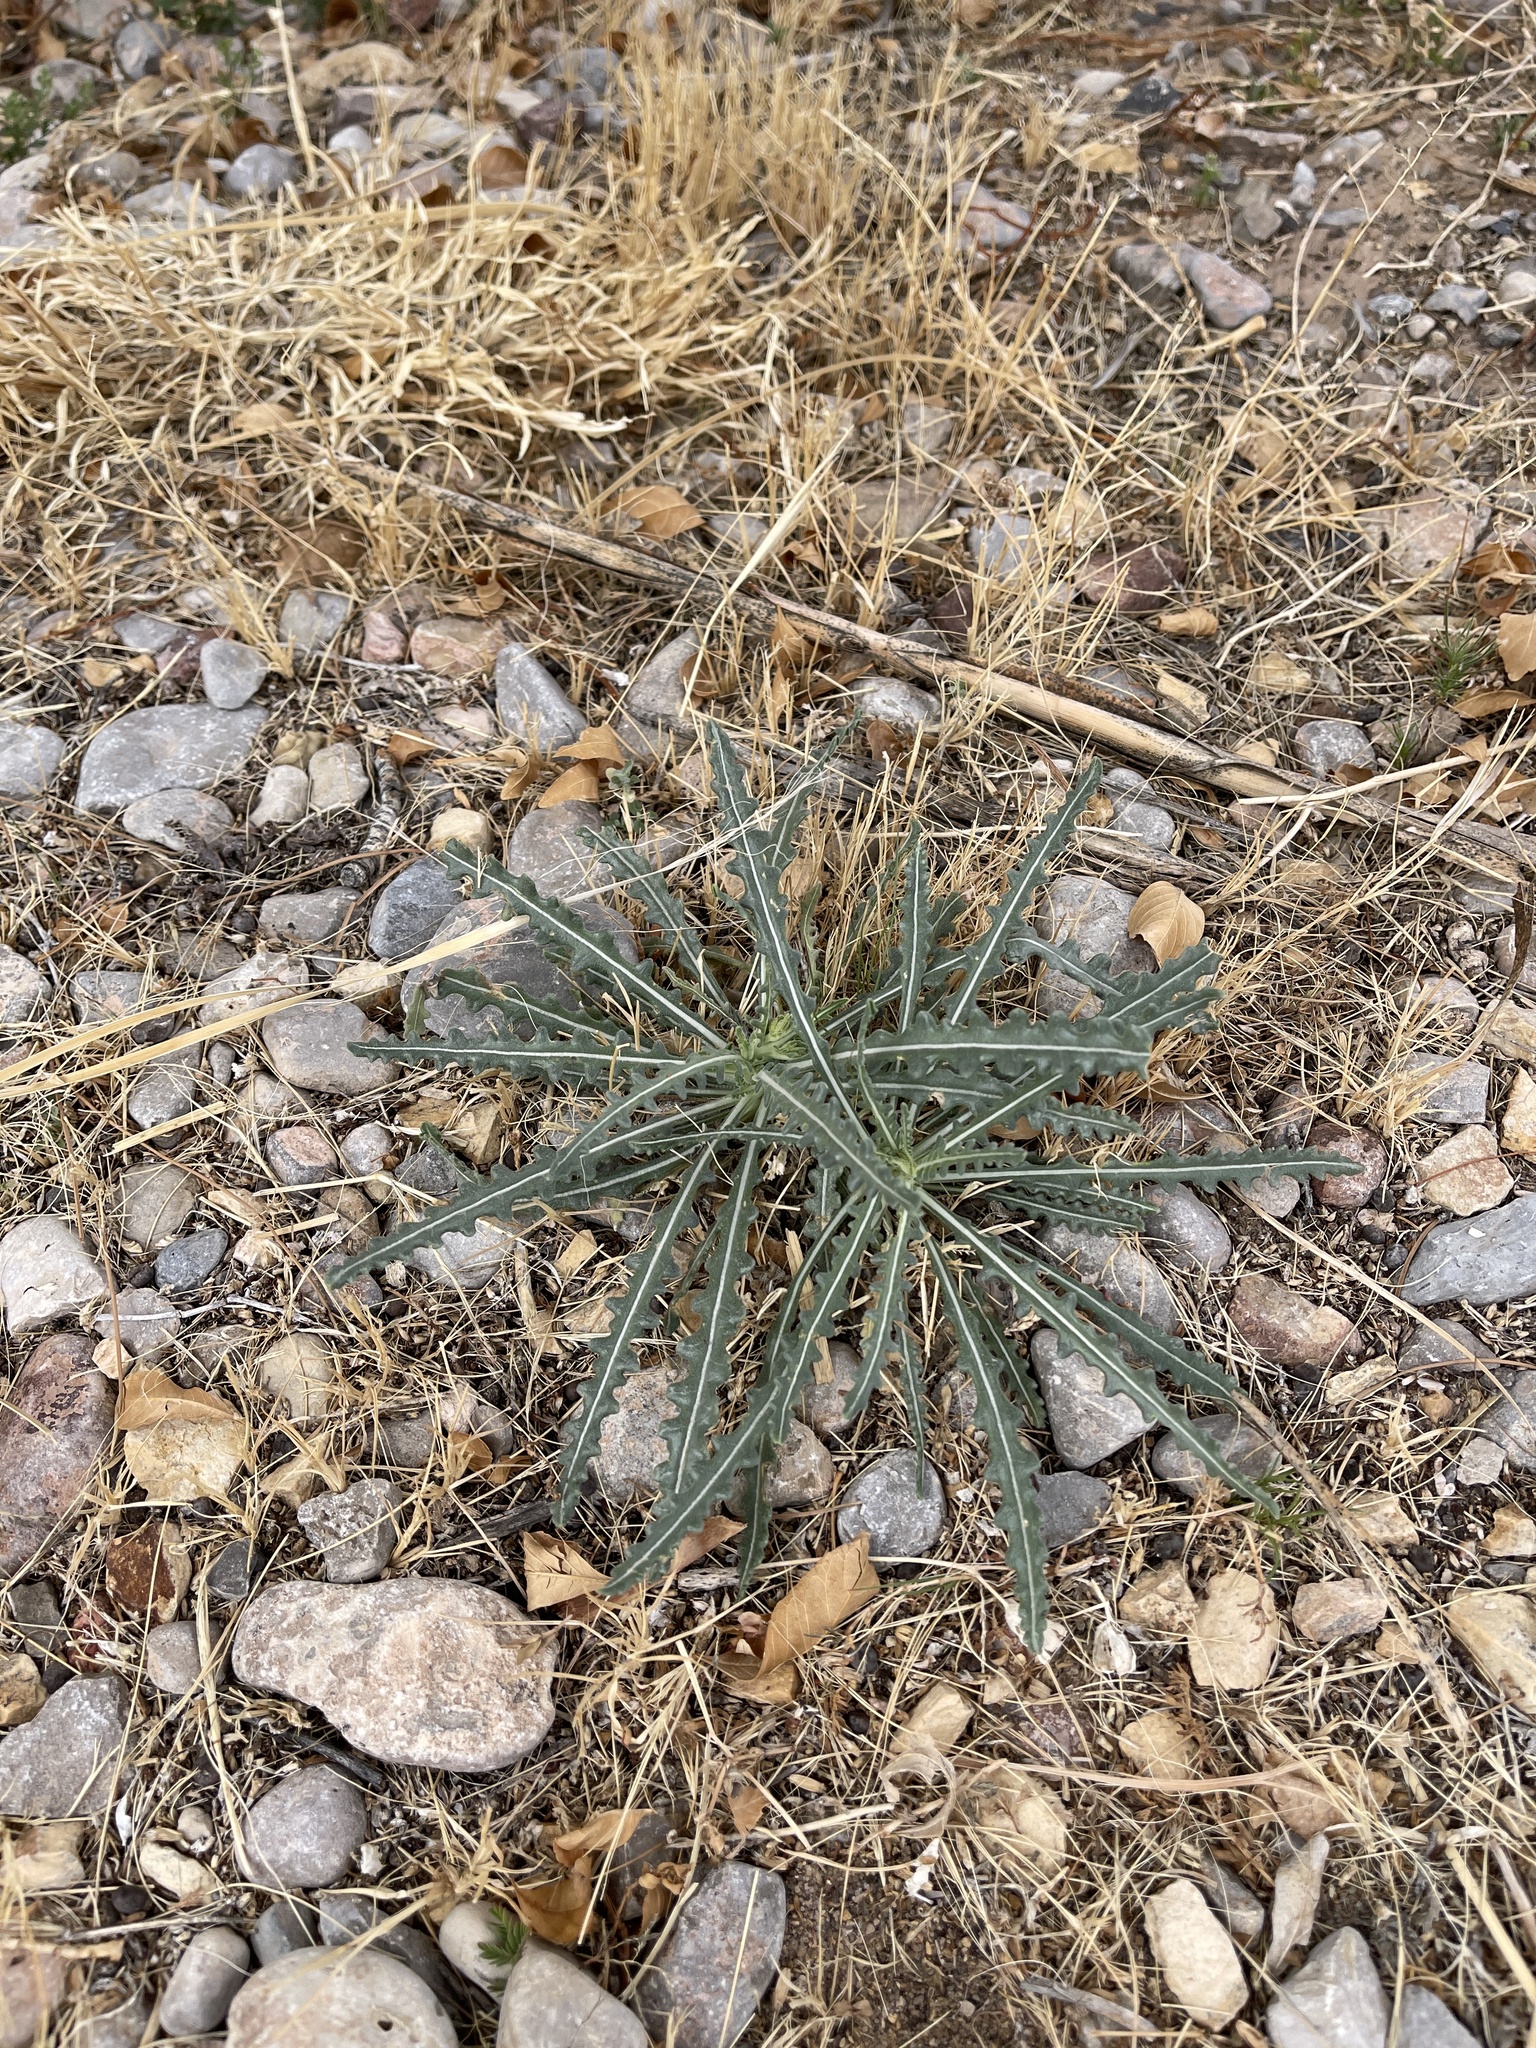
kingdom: Plantae
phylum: Tracheophyta
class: Magnoliopsida
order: Cornales
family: Loasaceae
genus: Mentzelia
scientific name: Mentzelia procera
